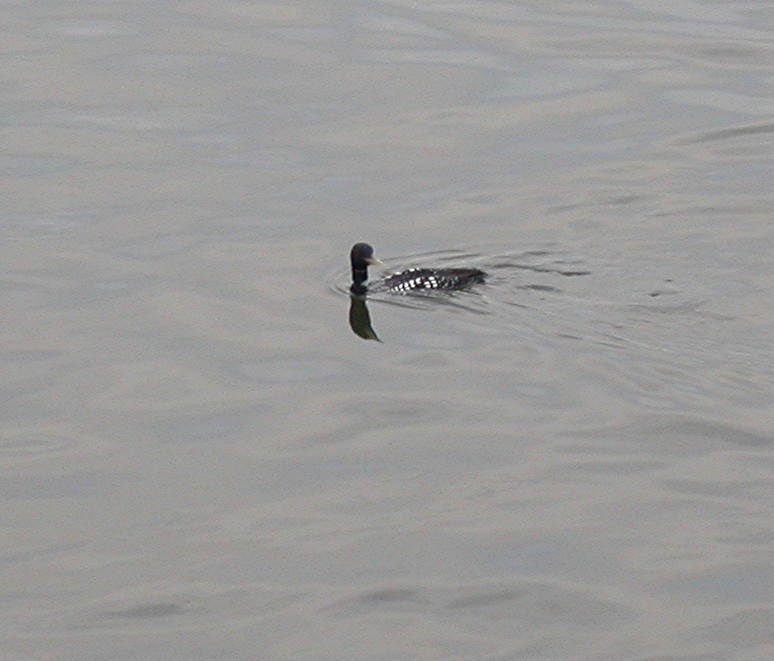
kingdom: Animalia
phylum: Chordata
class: Aves
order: Gaviiformes
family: Gaviidae
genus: Gavia
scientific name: Gavia adamsii
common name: Yellow-billed loon
